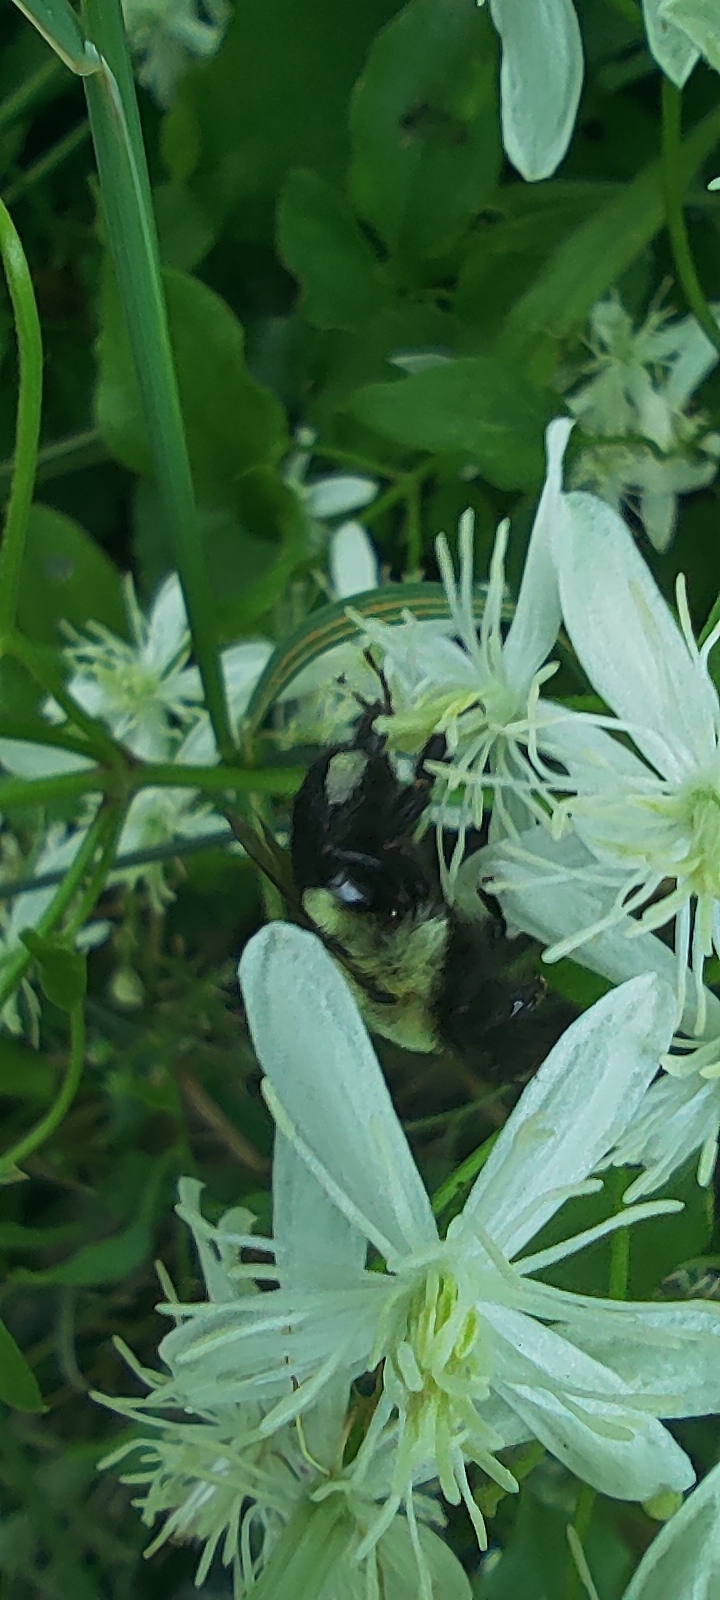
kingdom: Animalia
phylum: Arthropoda
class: Insecta
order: Hymenoptera
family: Apidae
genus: Bombus
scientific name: Bombus impatiens
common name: Common eastern bumble bee
